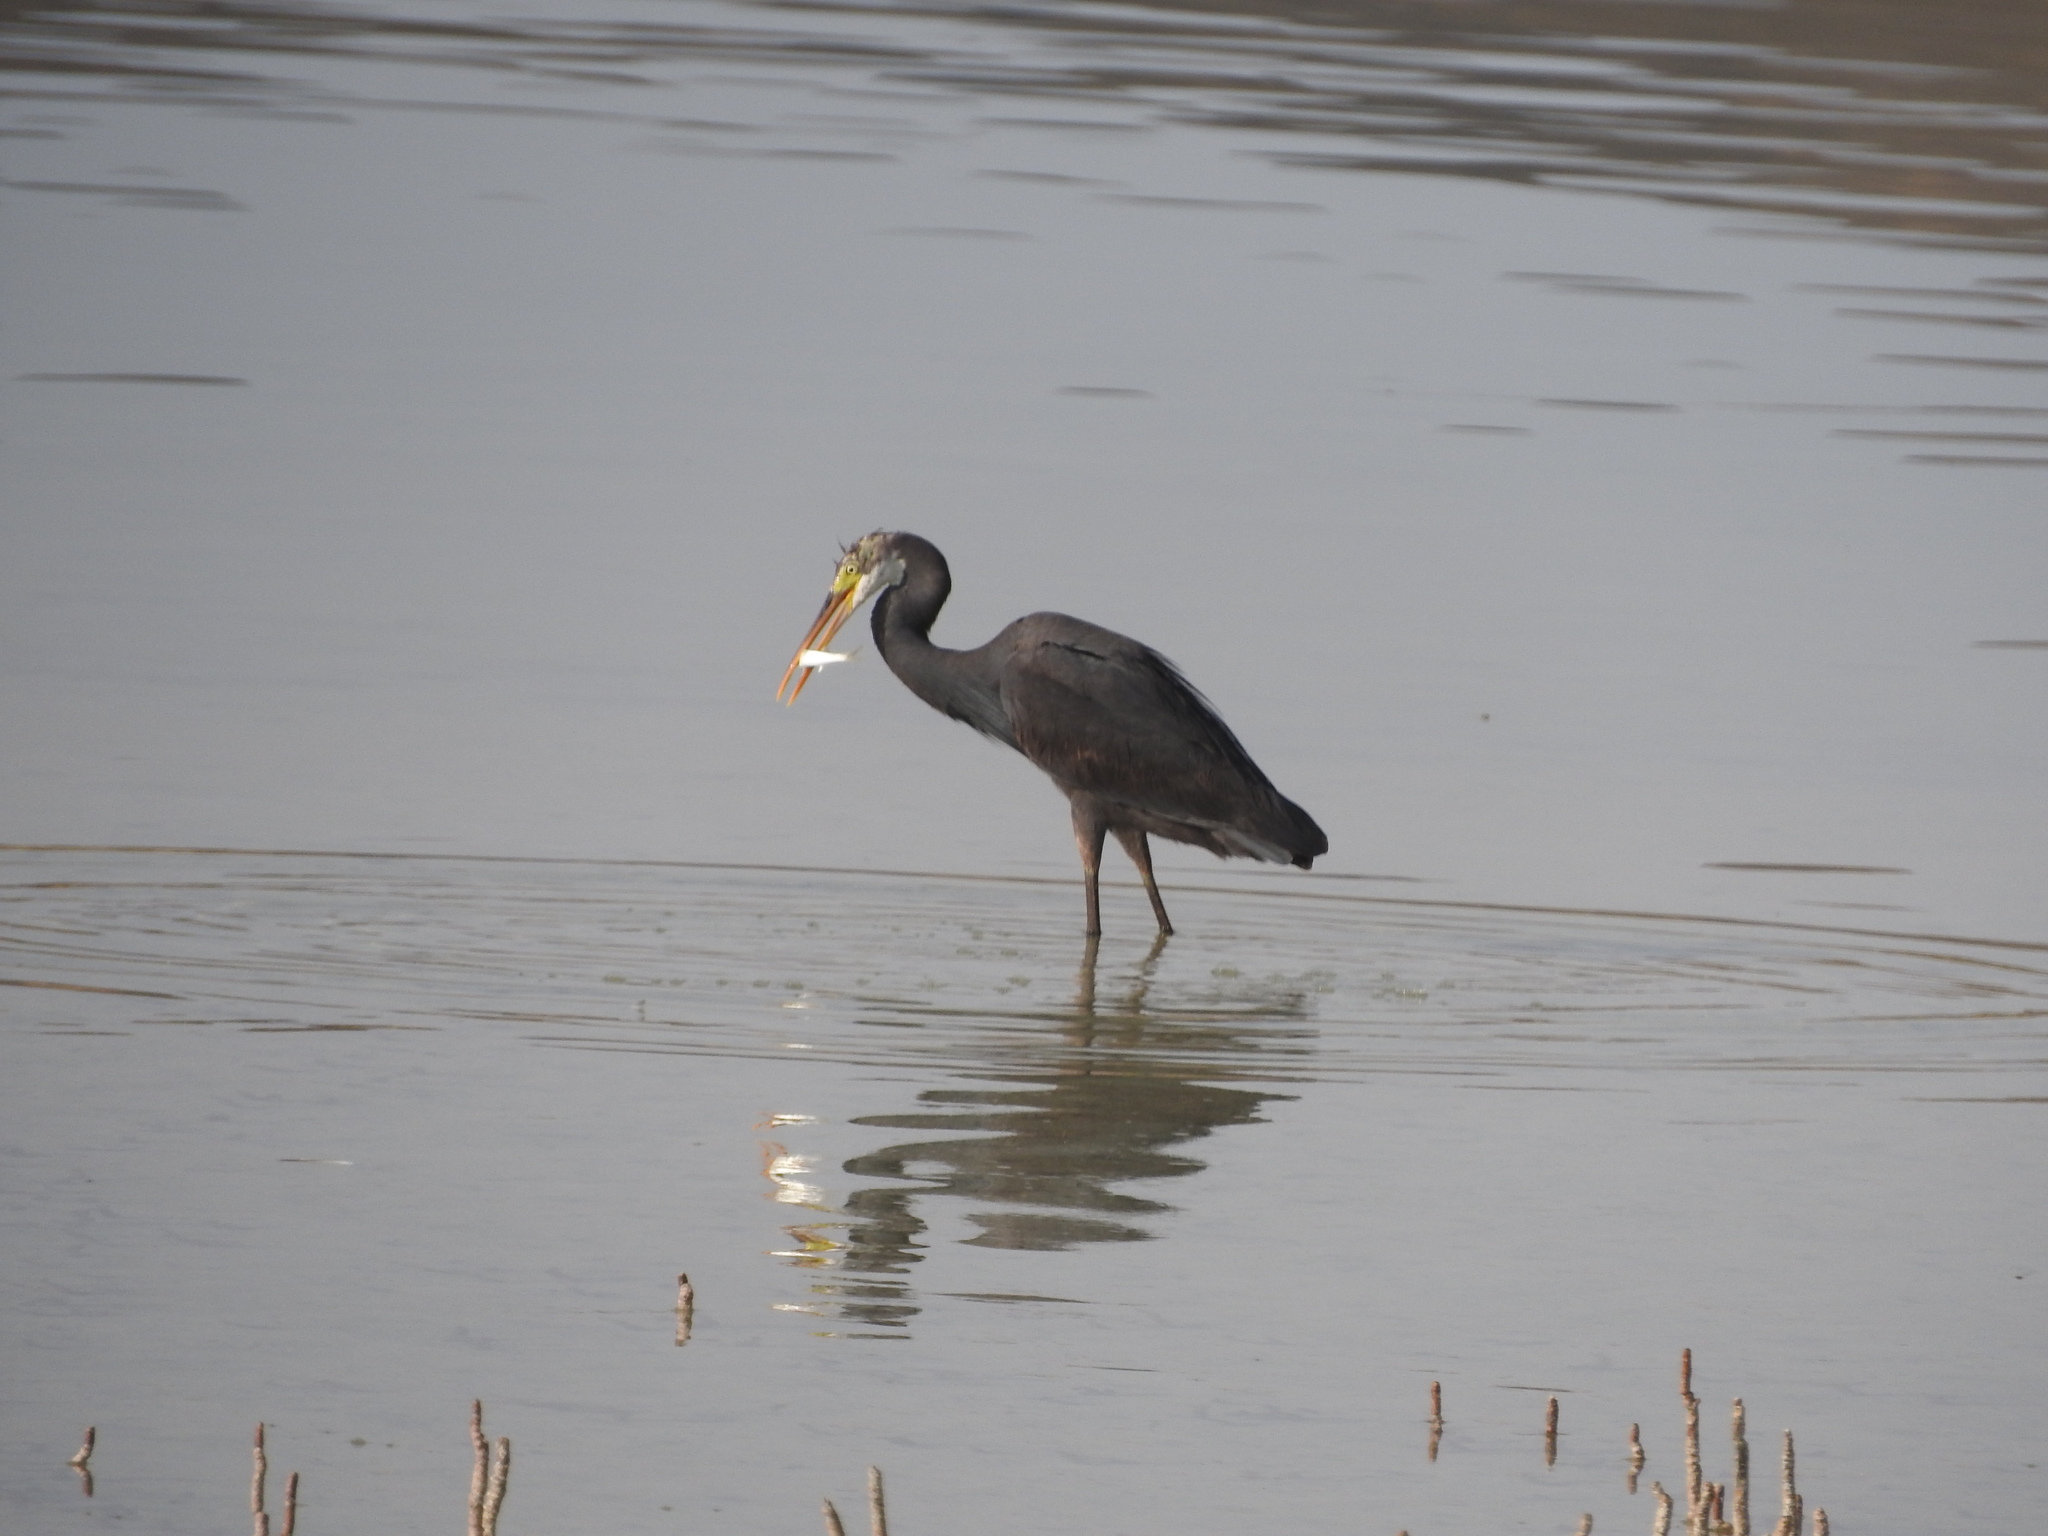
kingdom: Animalia
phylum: Chordata
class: Aves
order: Pelecaniformes
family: Ardeidae
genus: Egretta
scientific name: Egretta gularis
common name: Western reef-heron
